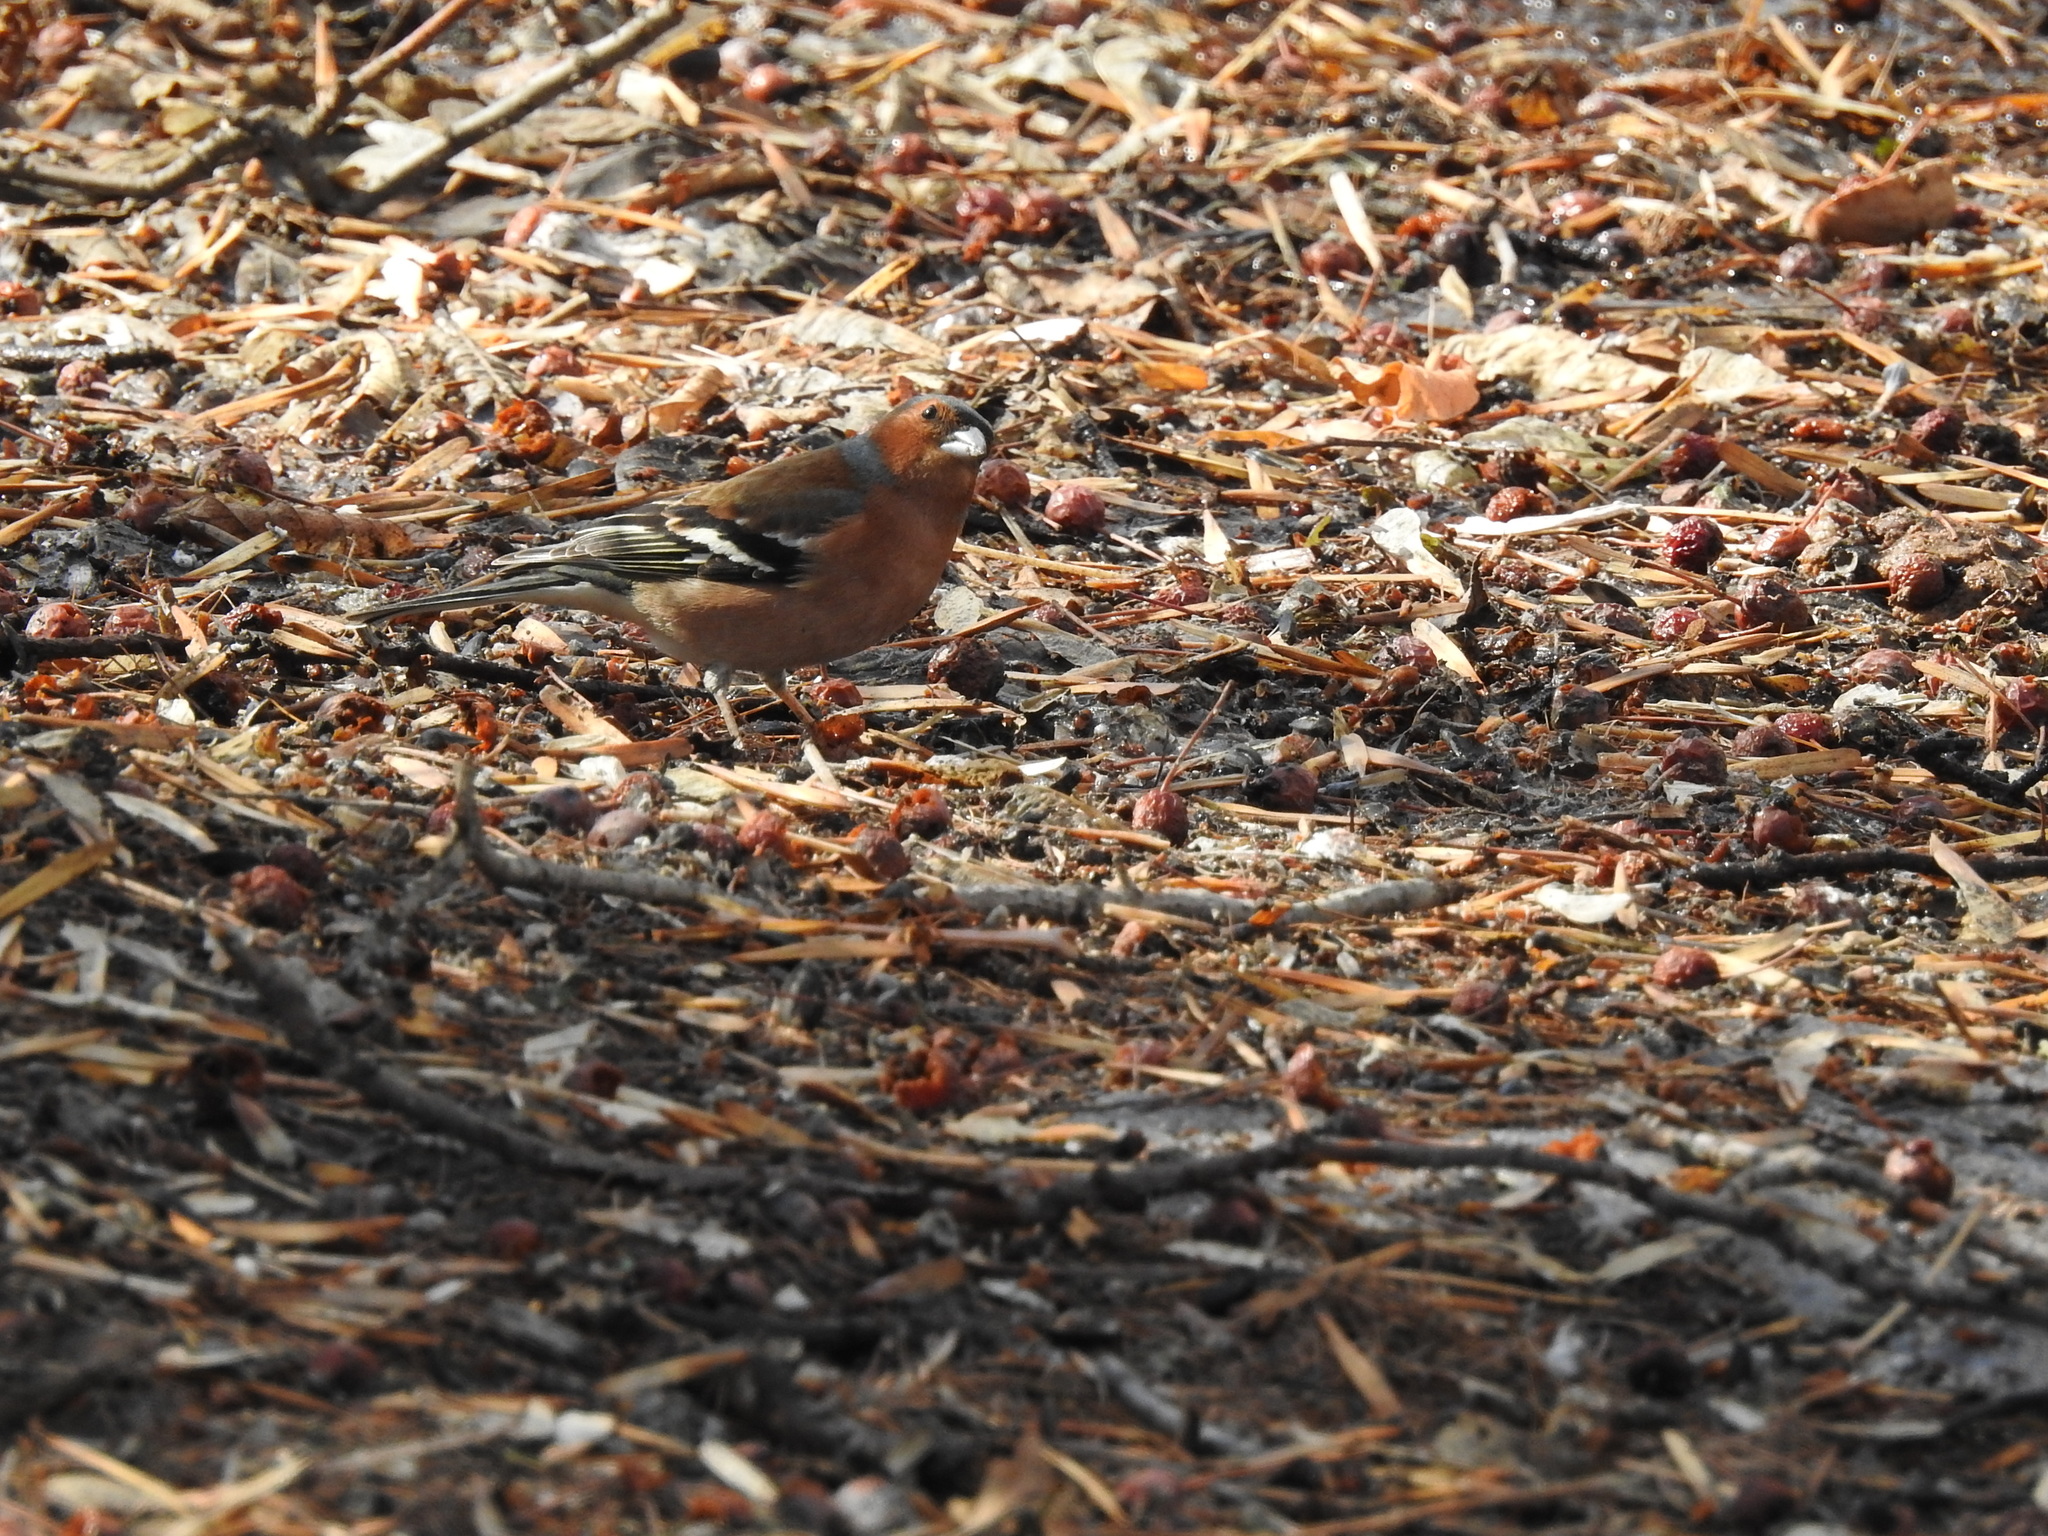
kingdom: Animalia
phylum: Chordata
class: Aves
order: Passeriformes
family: Fringillidae
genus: Fringilla
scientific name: Fringilla coelebs
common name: Common chaffinch
